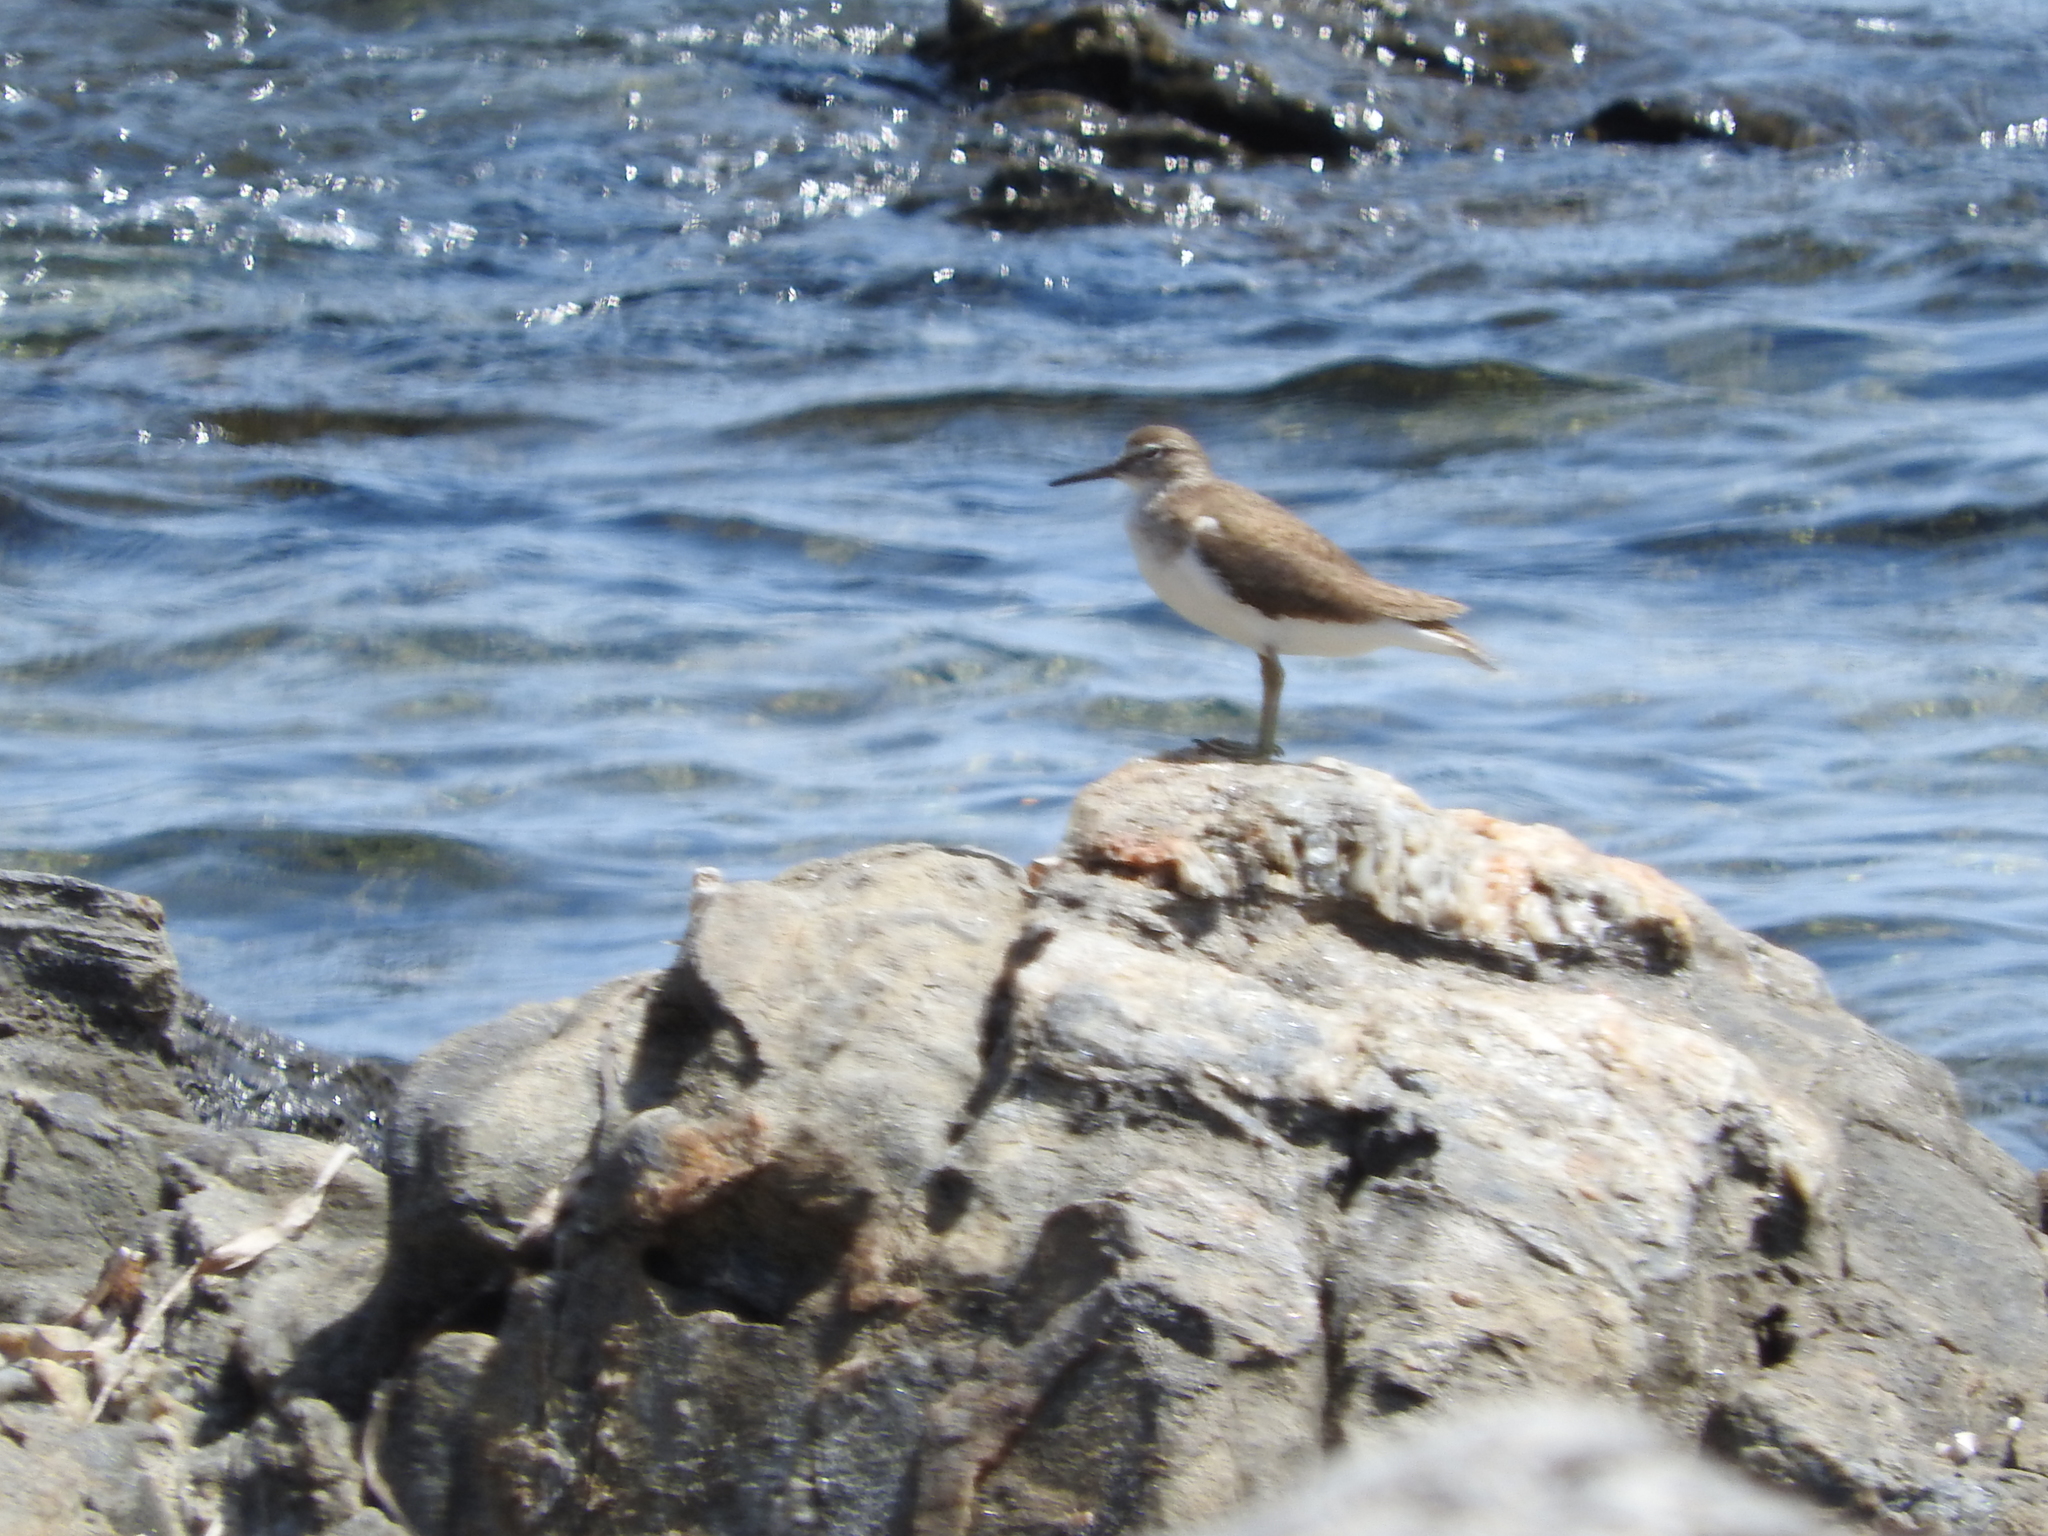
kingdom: Animalia
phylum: Chordata
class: Aves
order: Charadriiformes
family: Scolopacidae
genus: Actitis
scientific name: Actitis hypoleucos
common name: Common sandpiper
